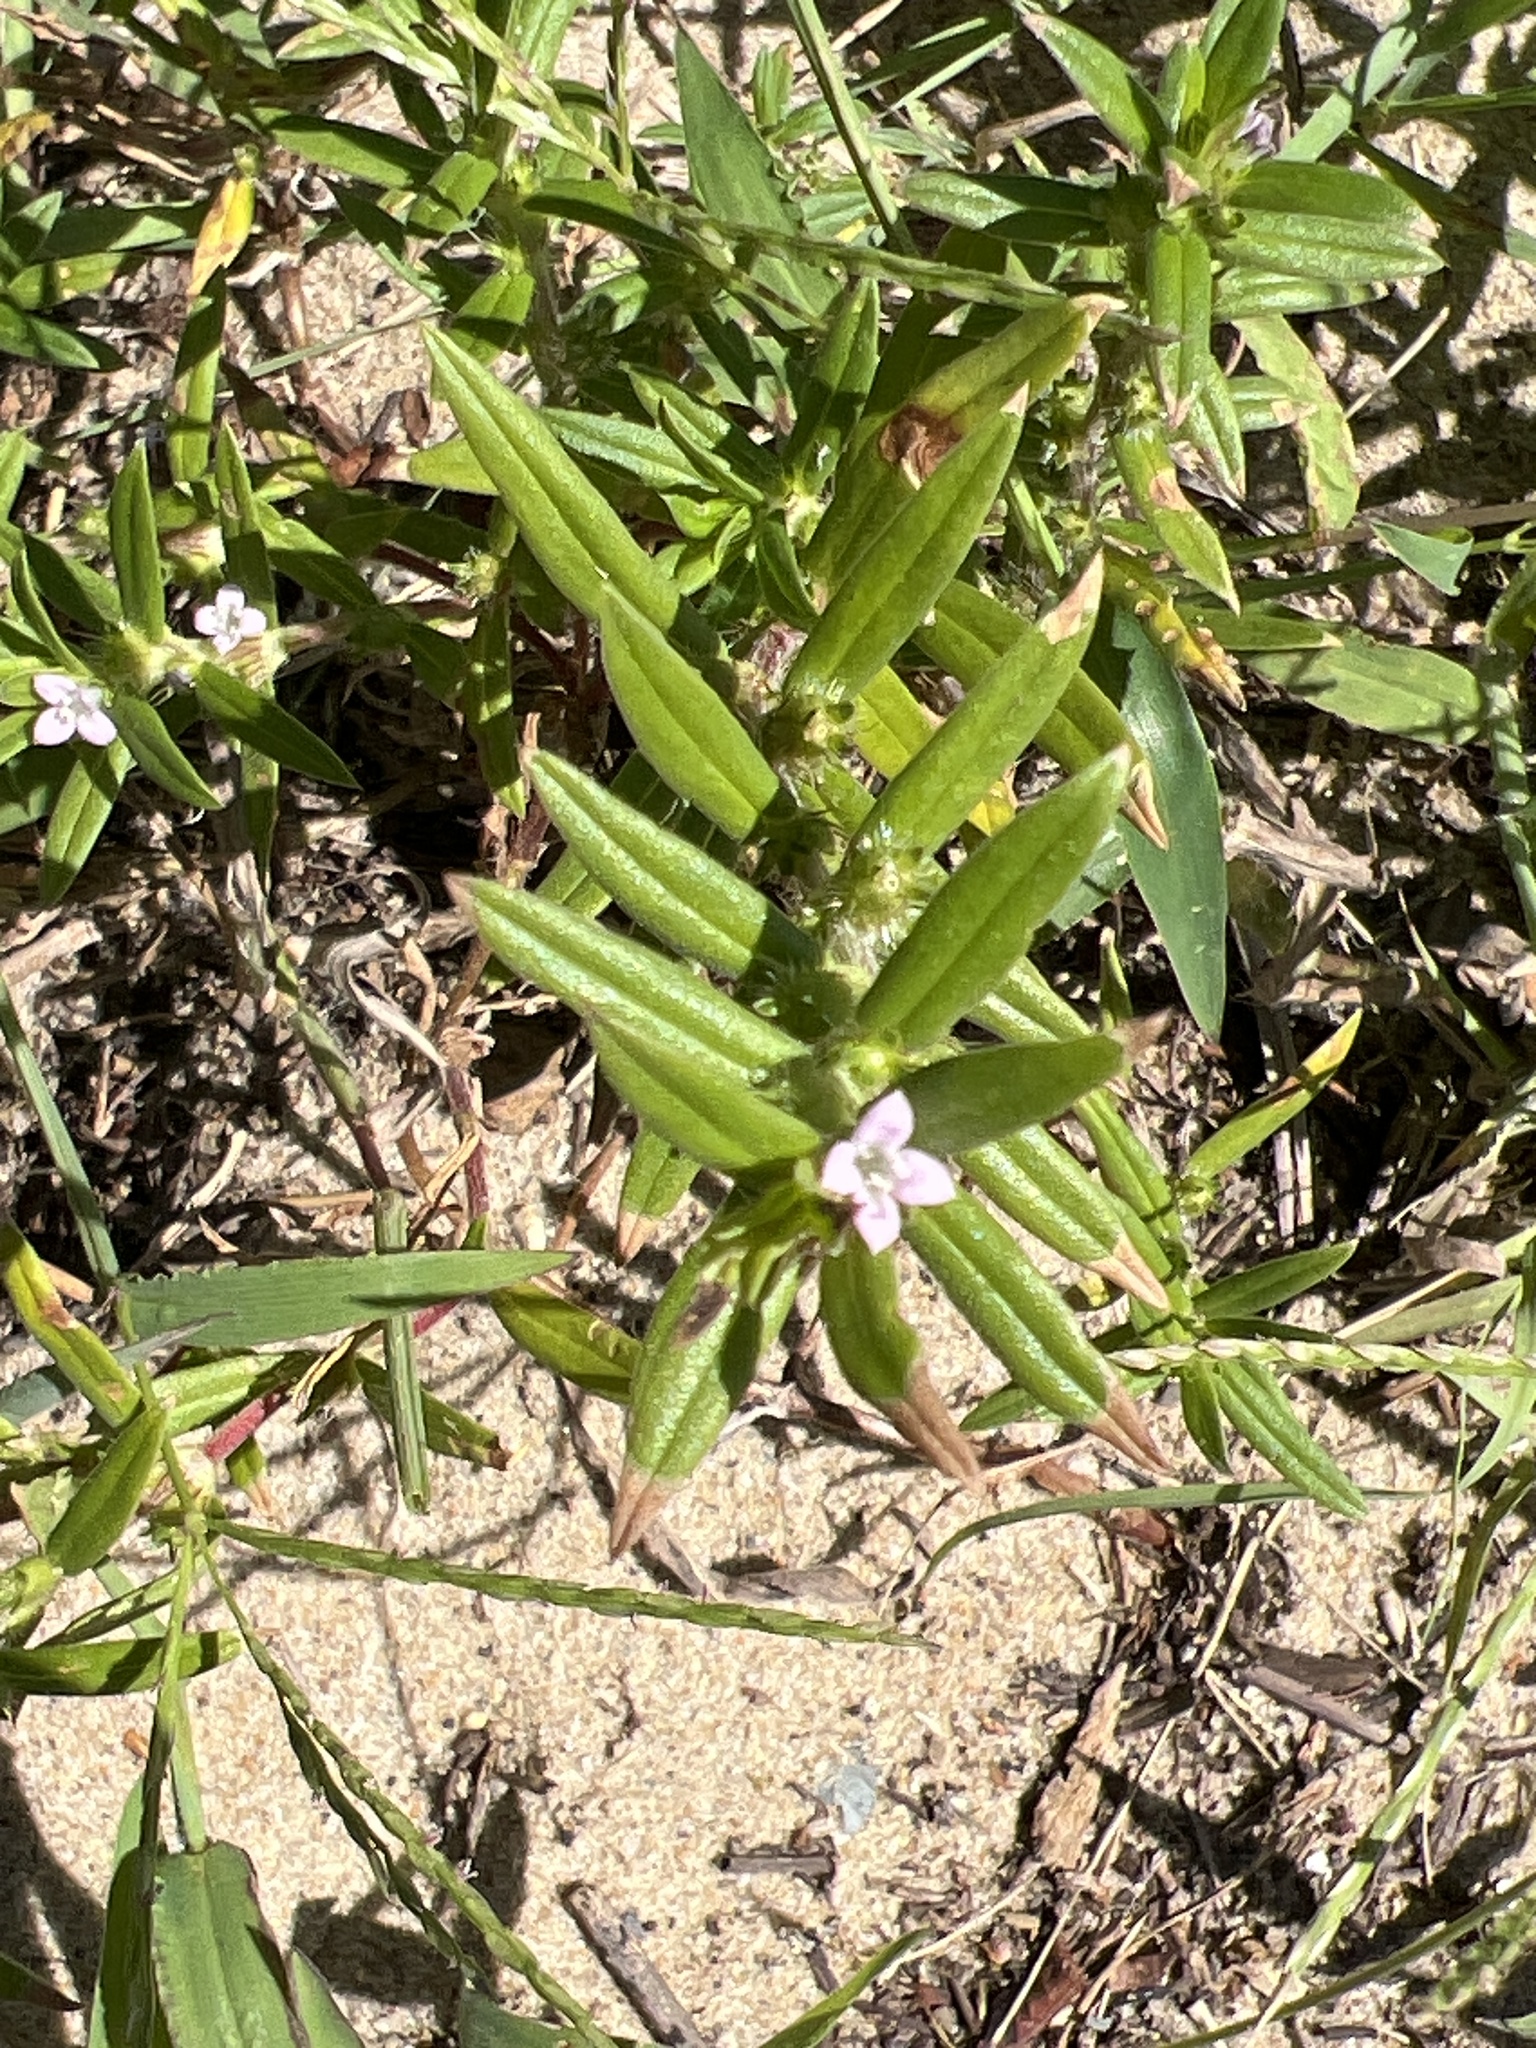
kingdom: Plantae
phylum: Tracheophyta
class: Magnoliopsida
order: Gentianales
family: Rubiaceae
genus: Hexasepalum
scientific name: Hexasepalum teres
